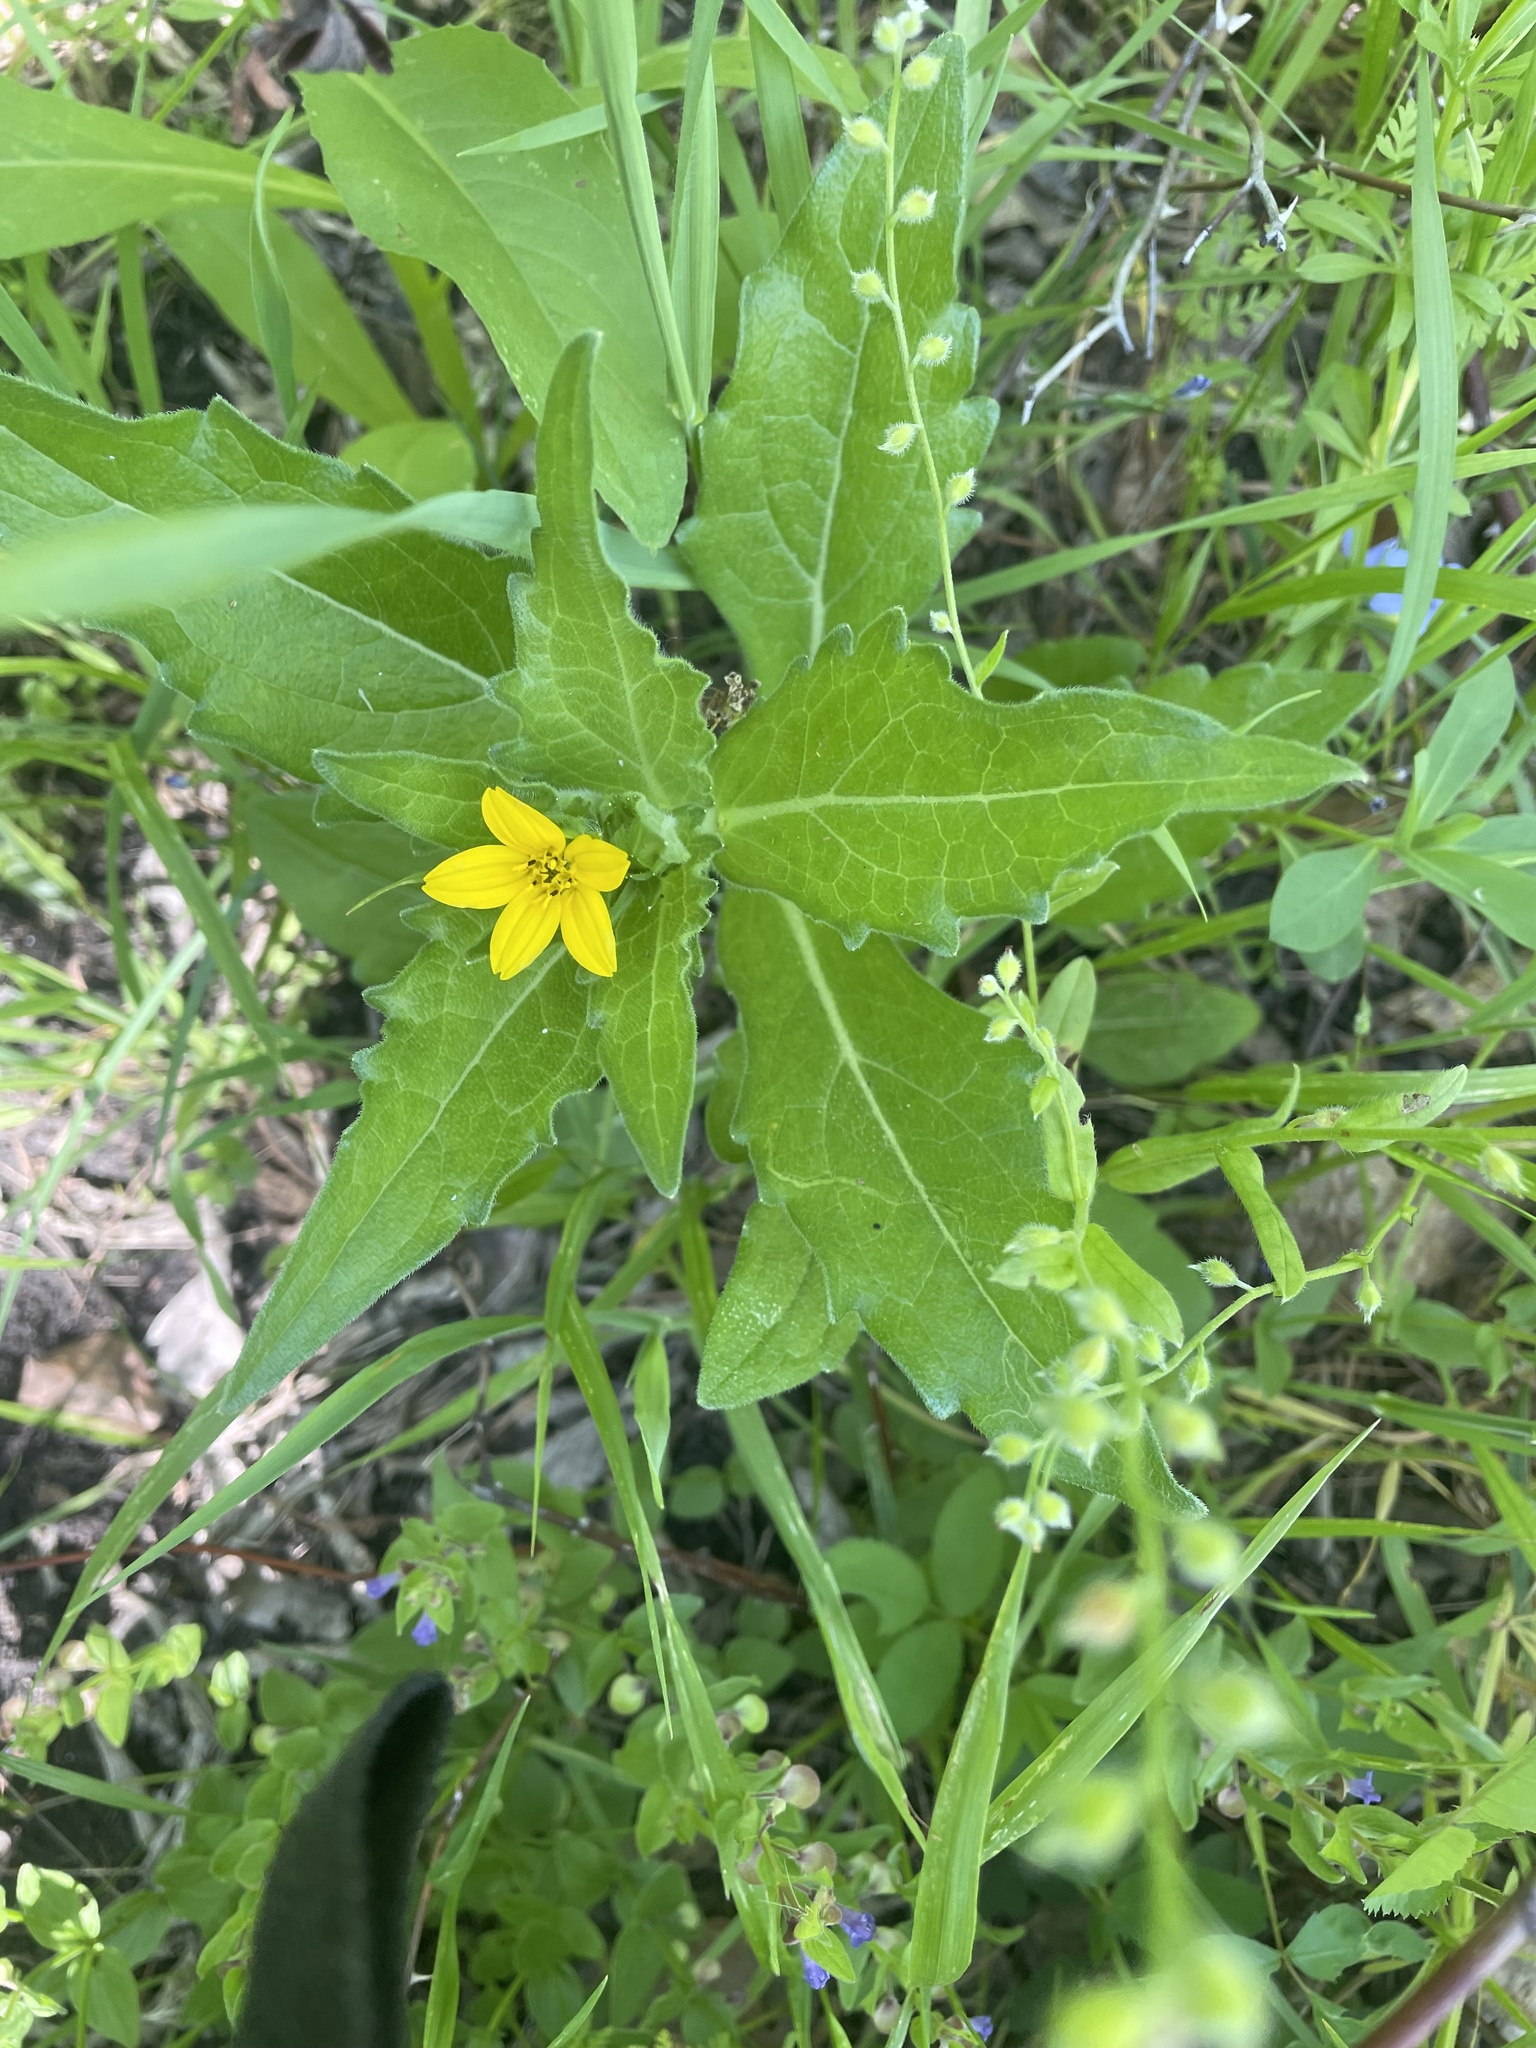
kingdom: Plantae
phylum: Tracheophyta
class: Magnoliopsida
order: Asterales
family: Asteraceae
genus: Lindheimera
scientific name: Lindheimera texana
